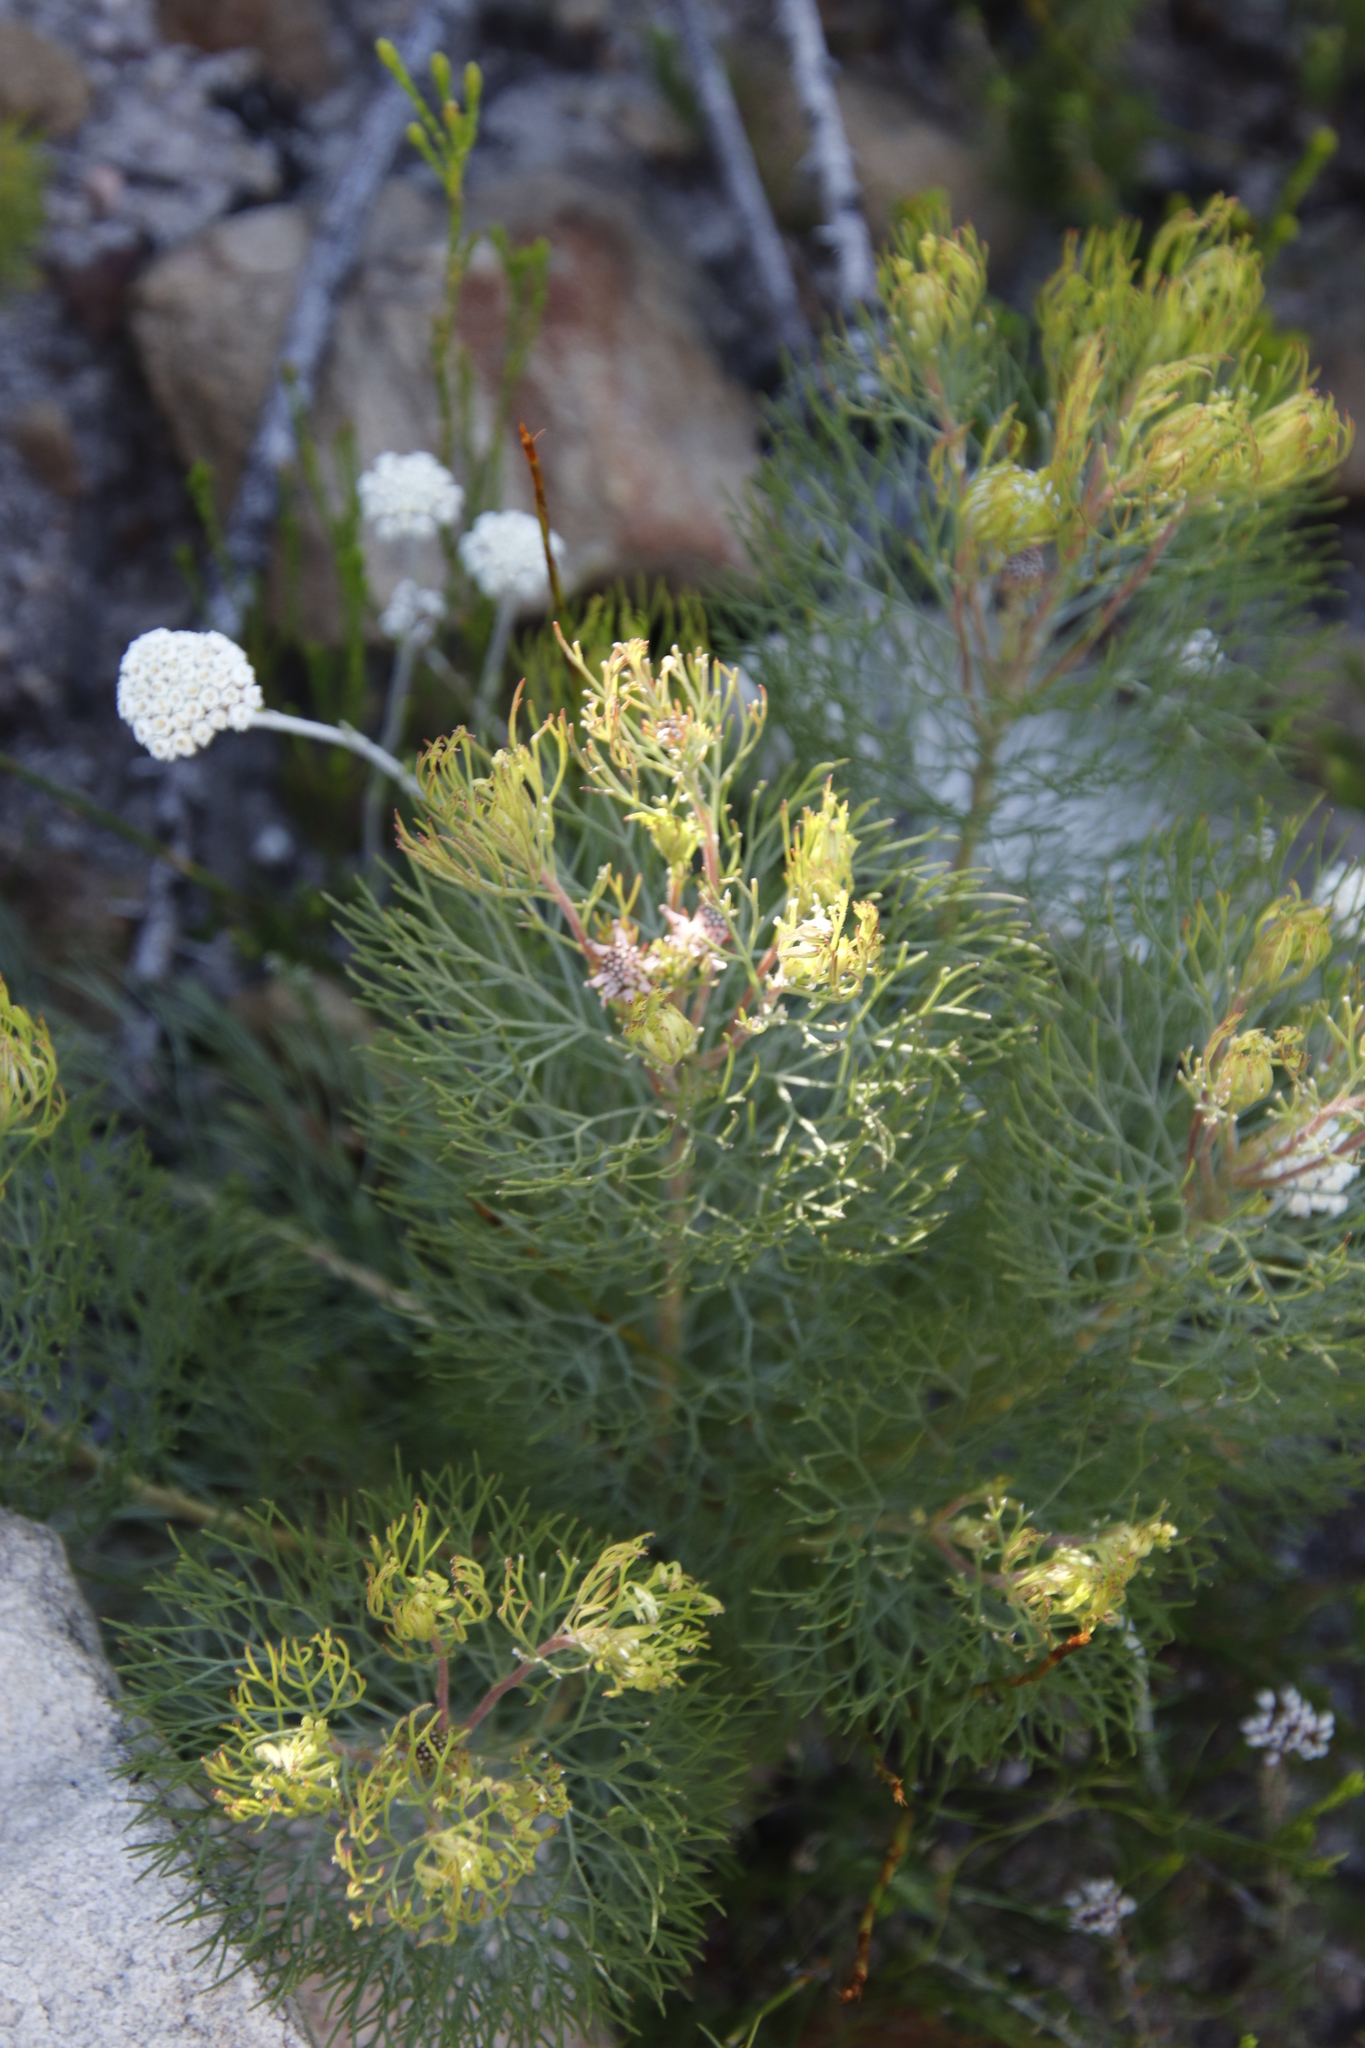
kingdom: Plantae
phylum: Tracheophyta
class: Magnoliopsida
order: Proteales
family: Proteaceae
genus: Serruria
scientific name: Serruria fasciflora
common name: Common pin spiderhead
